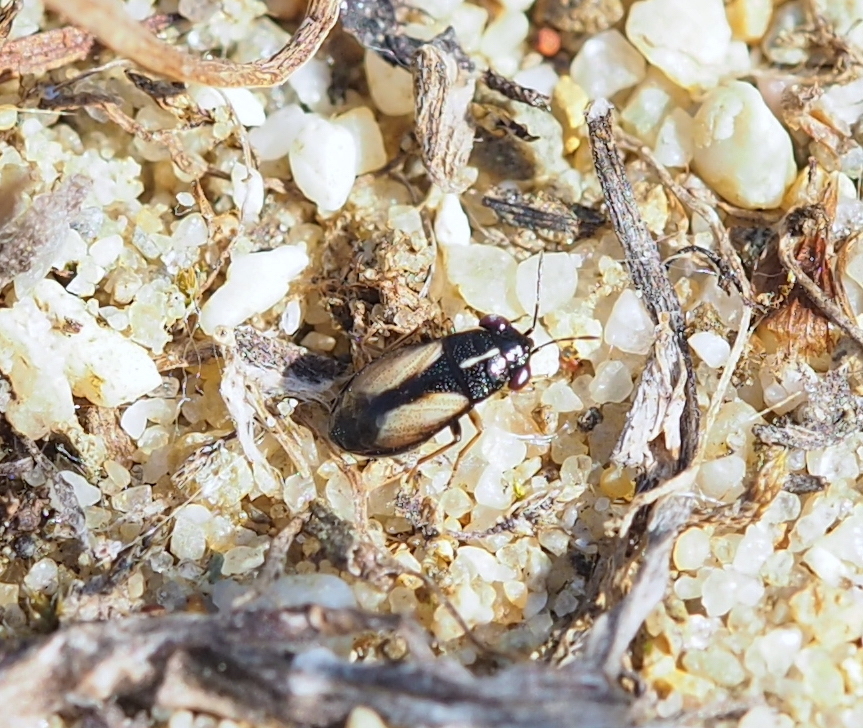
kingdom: Animalia
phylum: Arthropoda
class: Insecta
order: Hemiptera
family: Geocoridae
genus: Geocoris
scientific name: Geocoris ater
